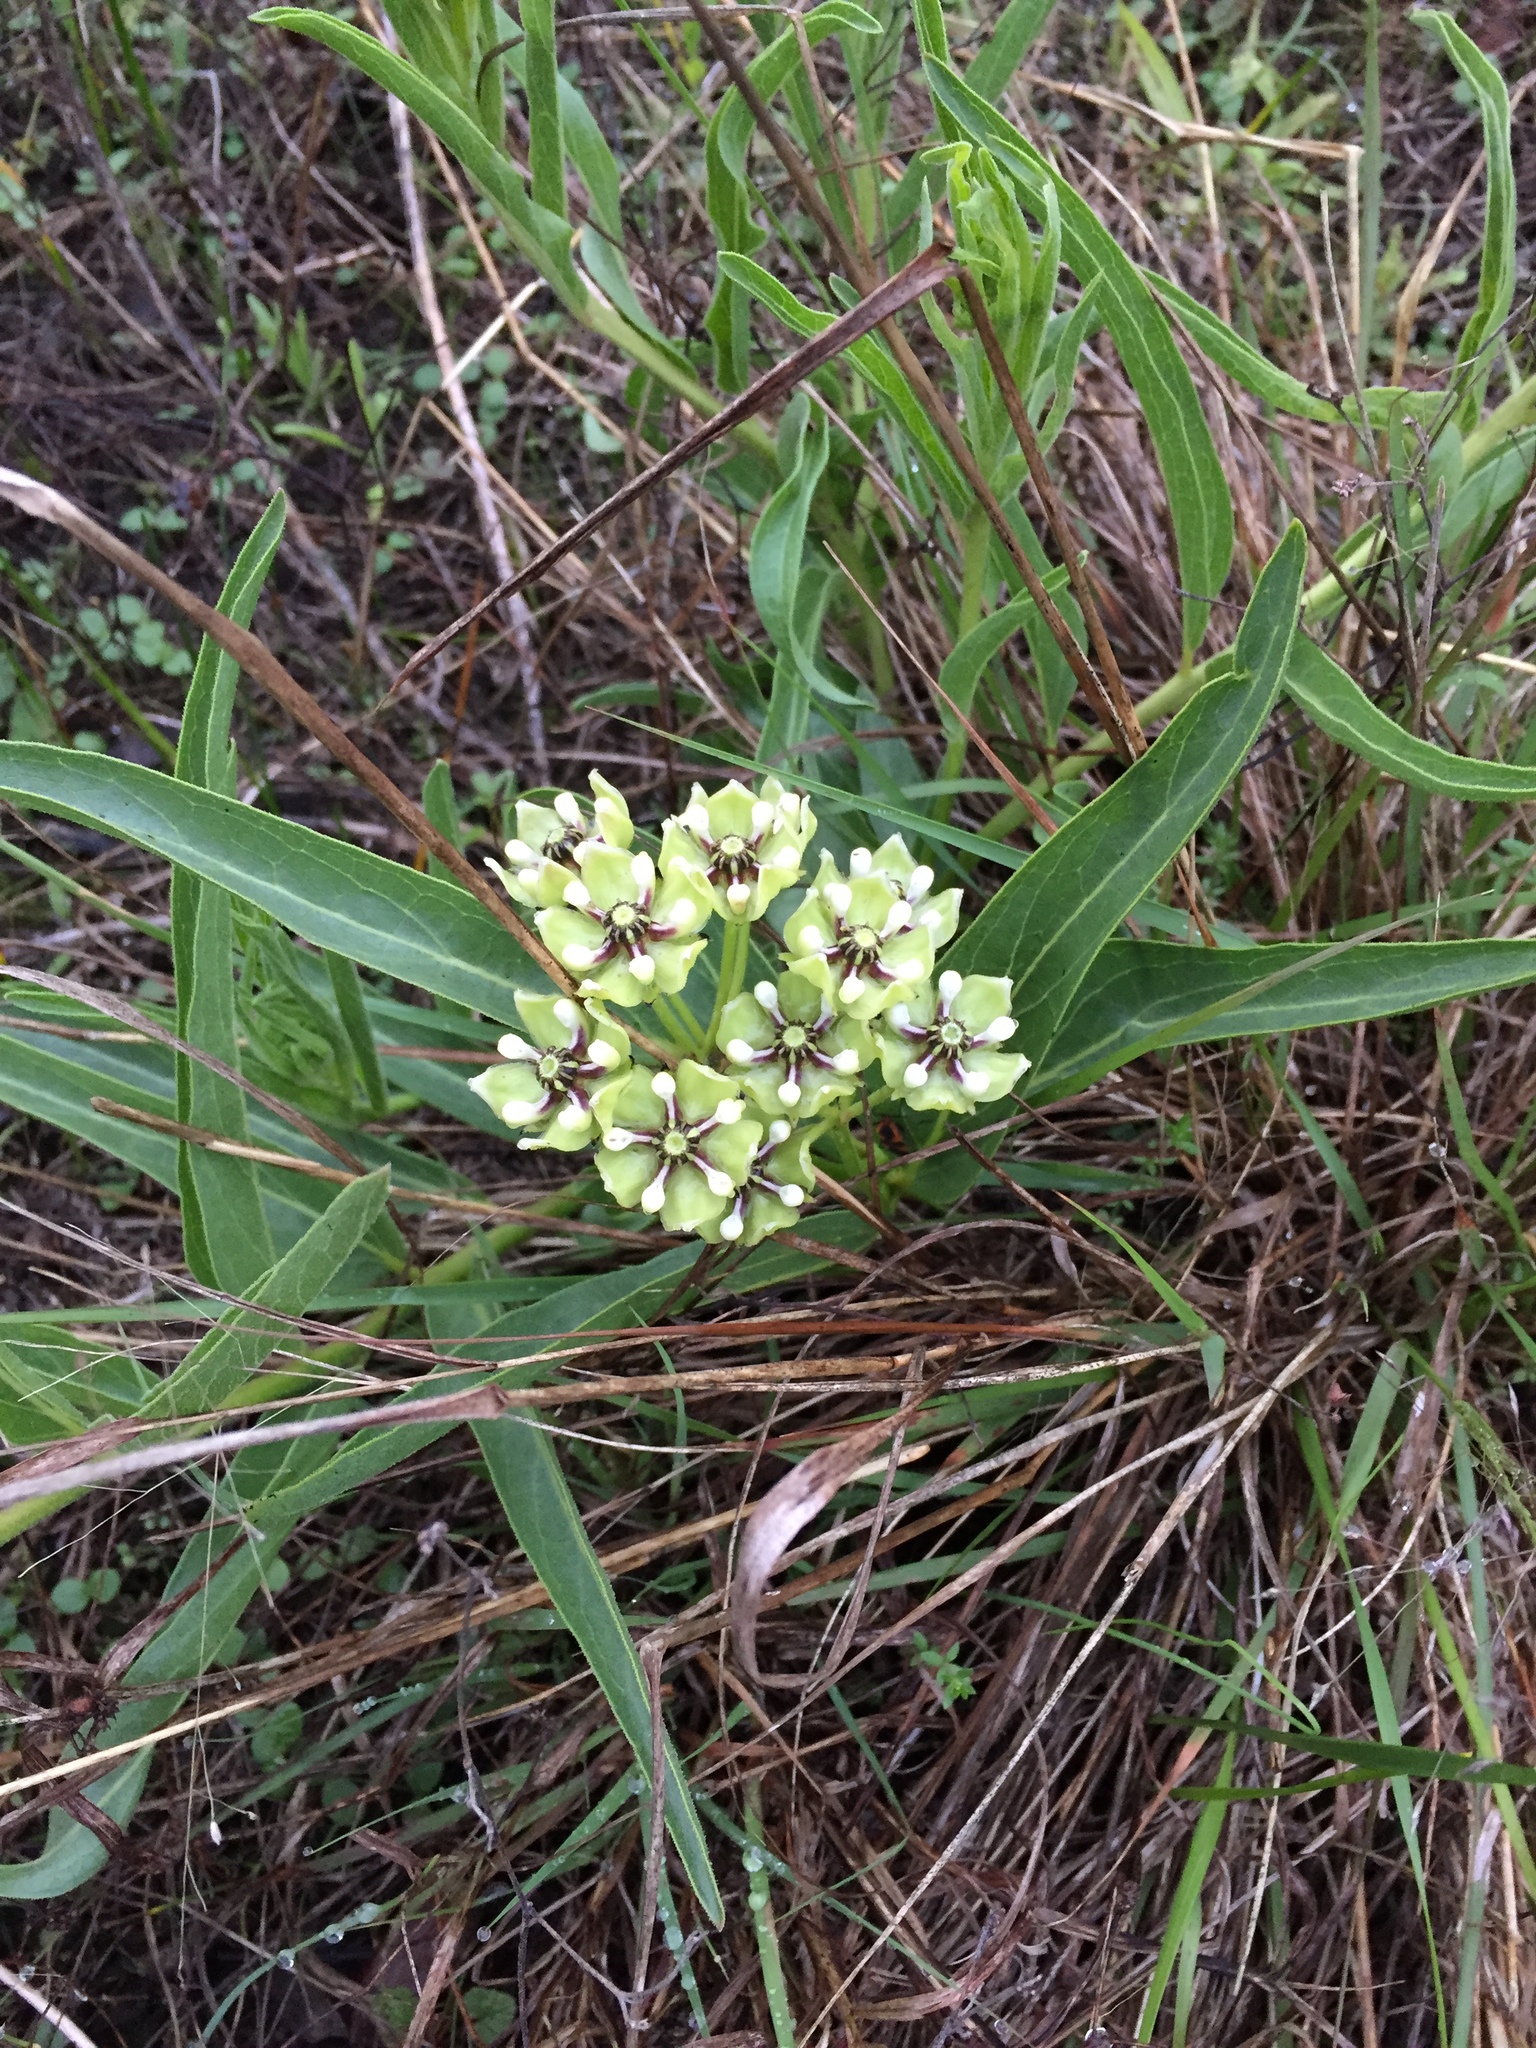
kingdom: Plantae
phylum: Tracheophyta
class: Magnoliopsida
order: Gentianales
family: Apocynaceae
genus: Asclepias
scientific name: Asclepias asperula
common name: Antelope horns
